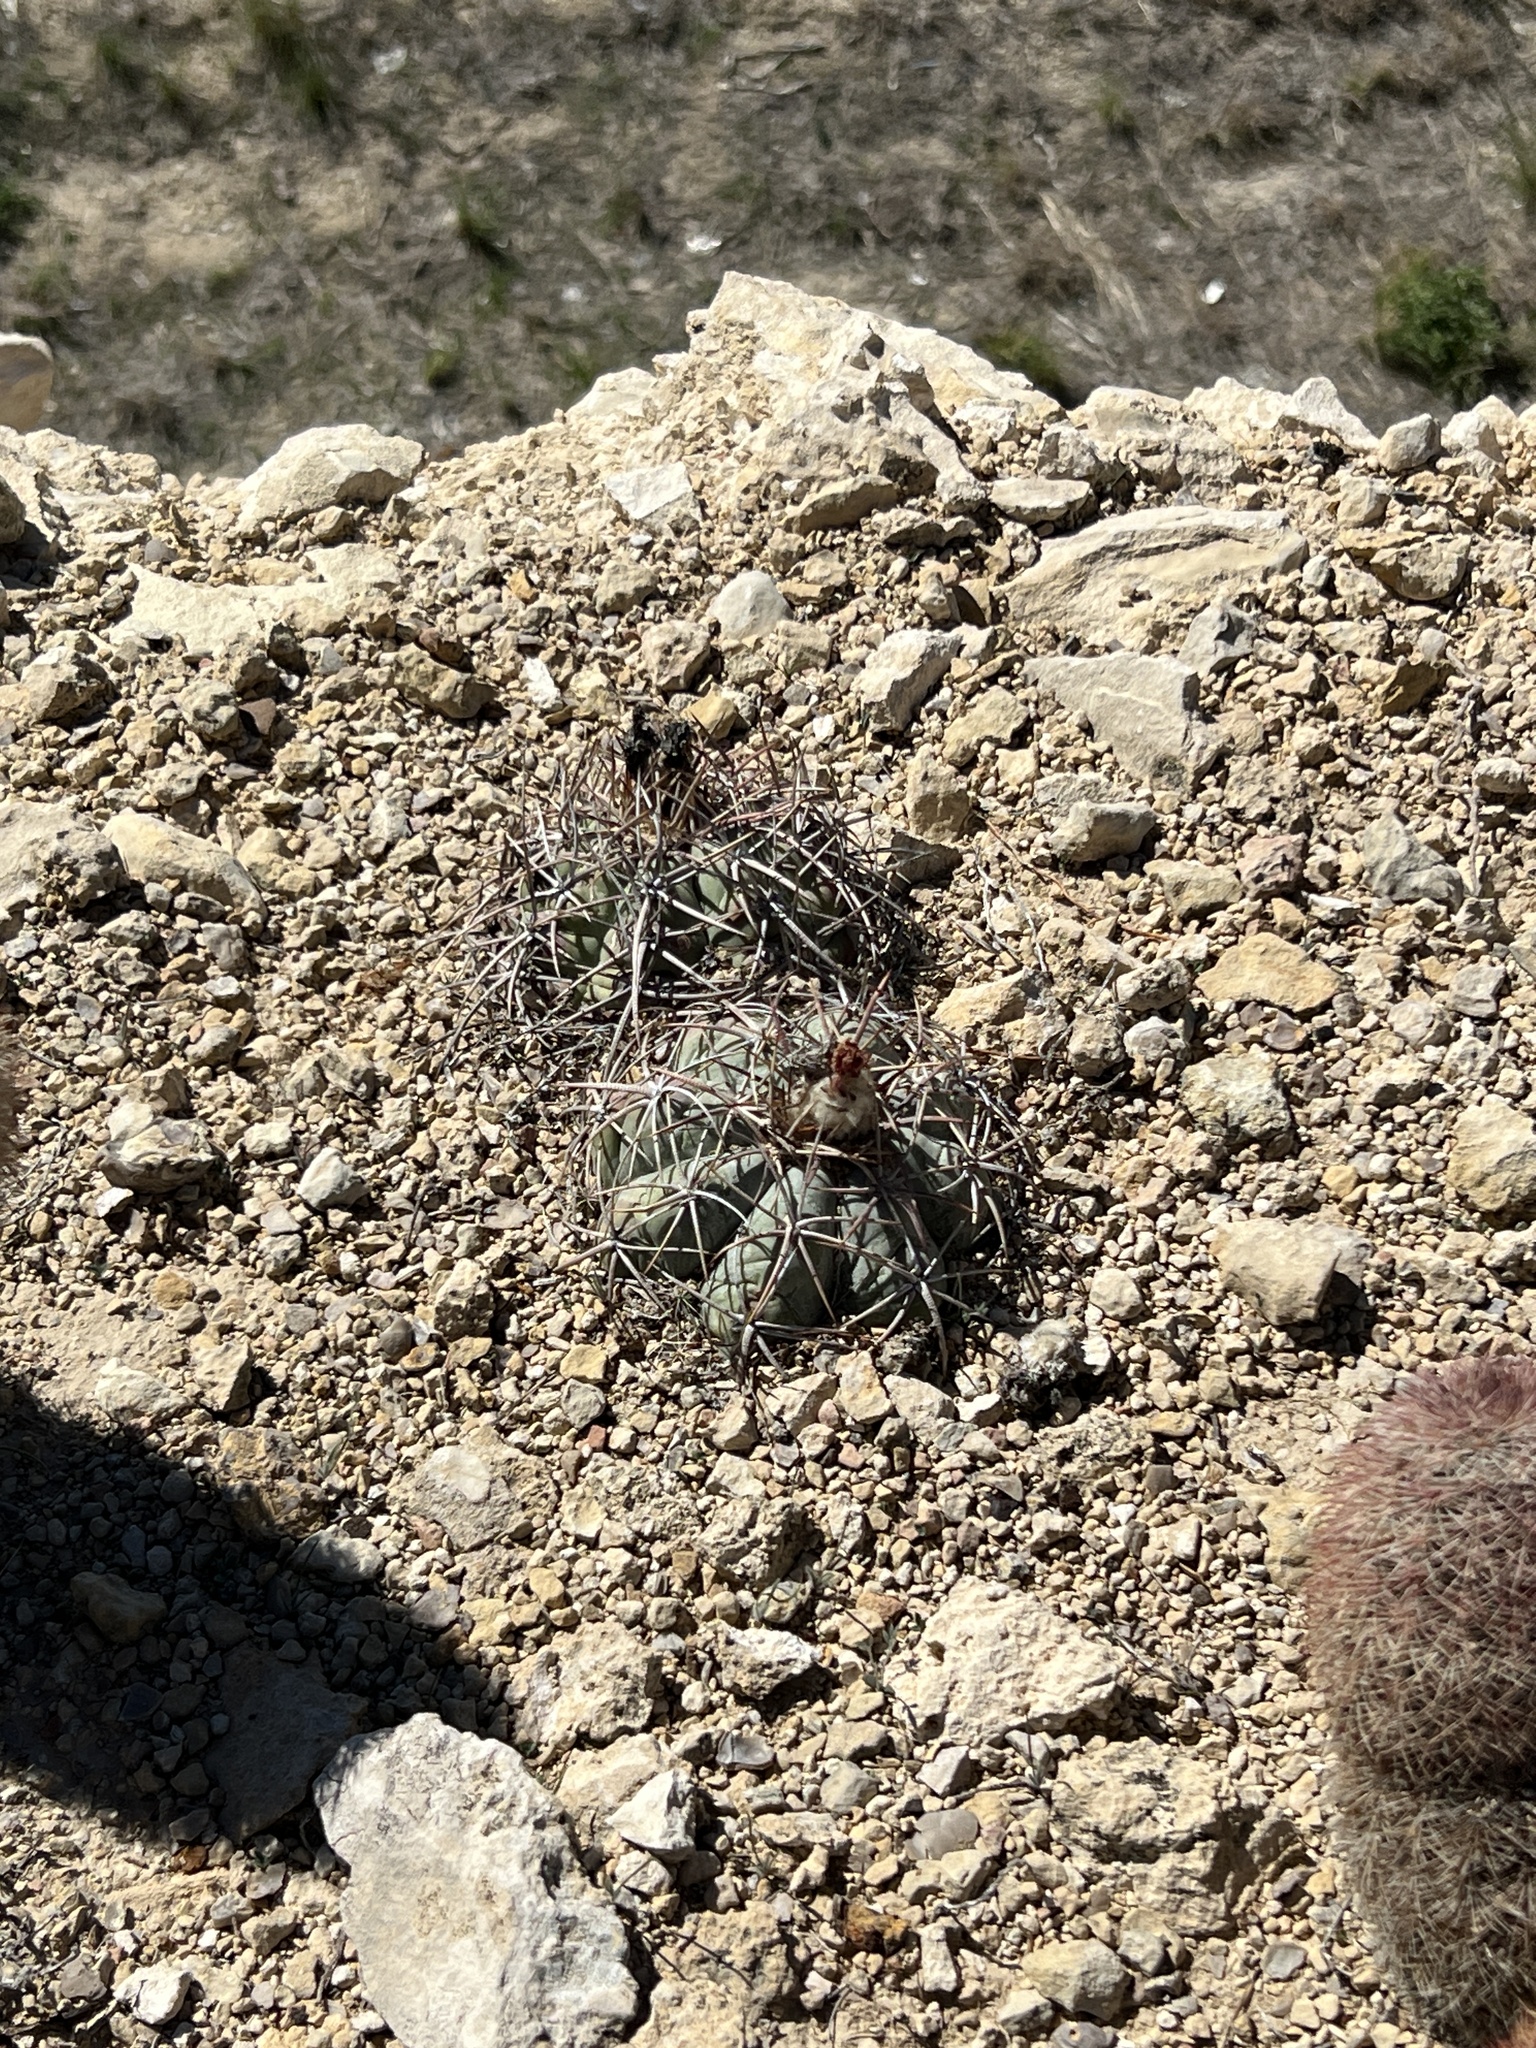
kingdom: Plantae
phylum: Tracheophyta
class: Magnoliopsida
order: Caryophyllales
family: Cactaceae
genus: Echinocactus
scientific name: Echinocactus horizonthalonius
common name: Devilshead
